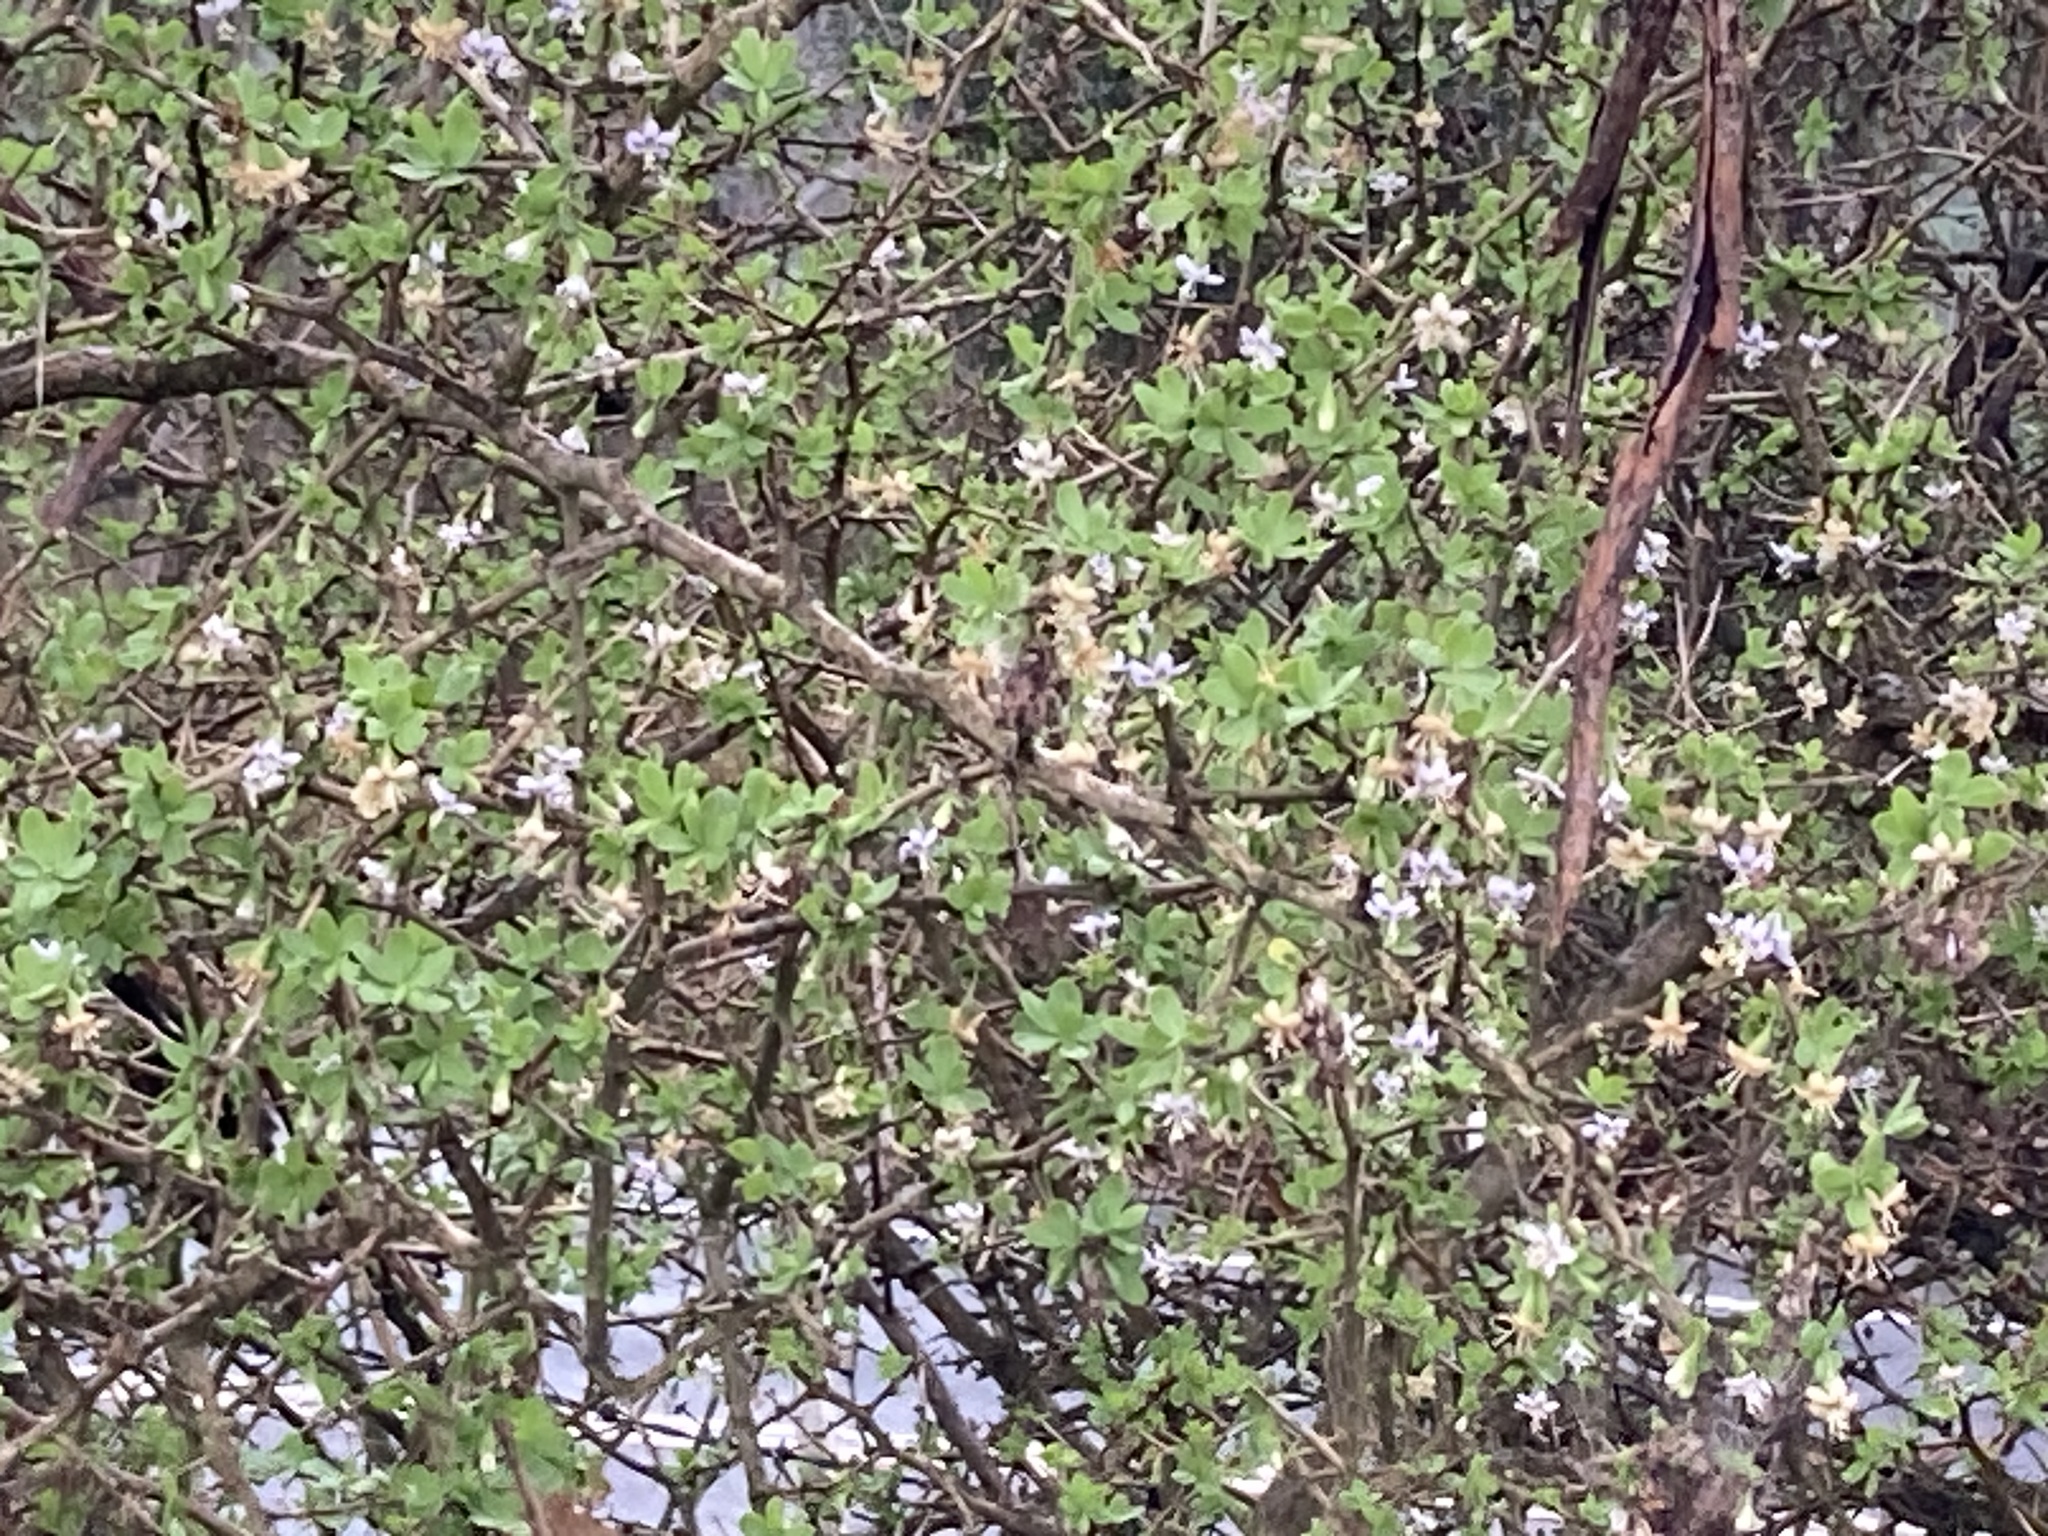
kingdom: Plantae
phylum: Tracheophyta
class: Magnoliopsida
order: Solanales
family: Solanaceae
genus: Lycium
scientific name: Lycium ferocissimum
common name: African boxthorn
